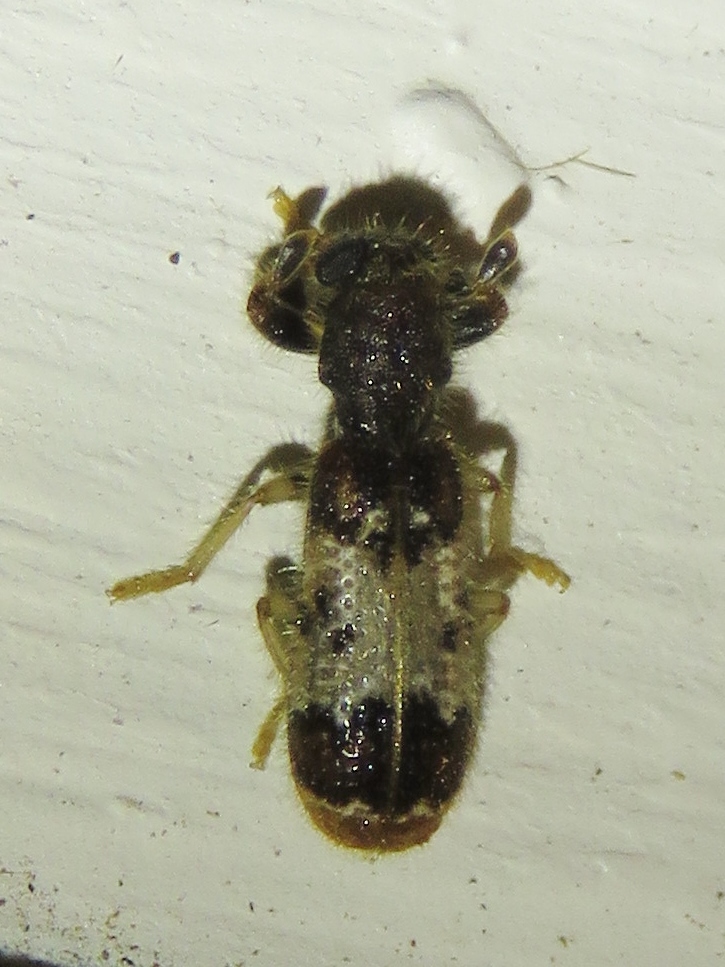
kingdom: Animalia
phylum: Arthropoda
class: Insecta
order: Coleoptera
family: Cleridae
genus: Pelonium
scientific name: Pelonium leucophaeum
